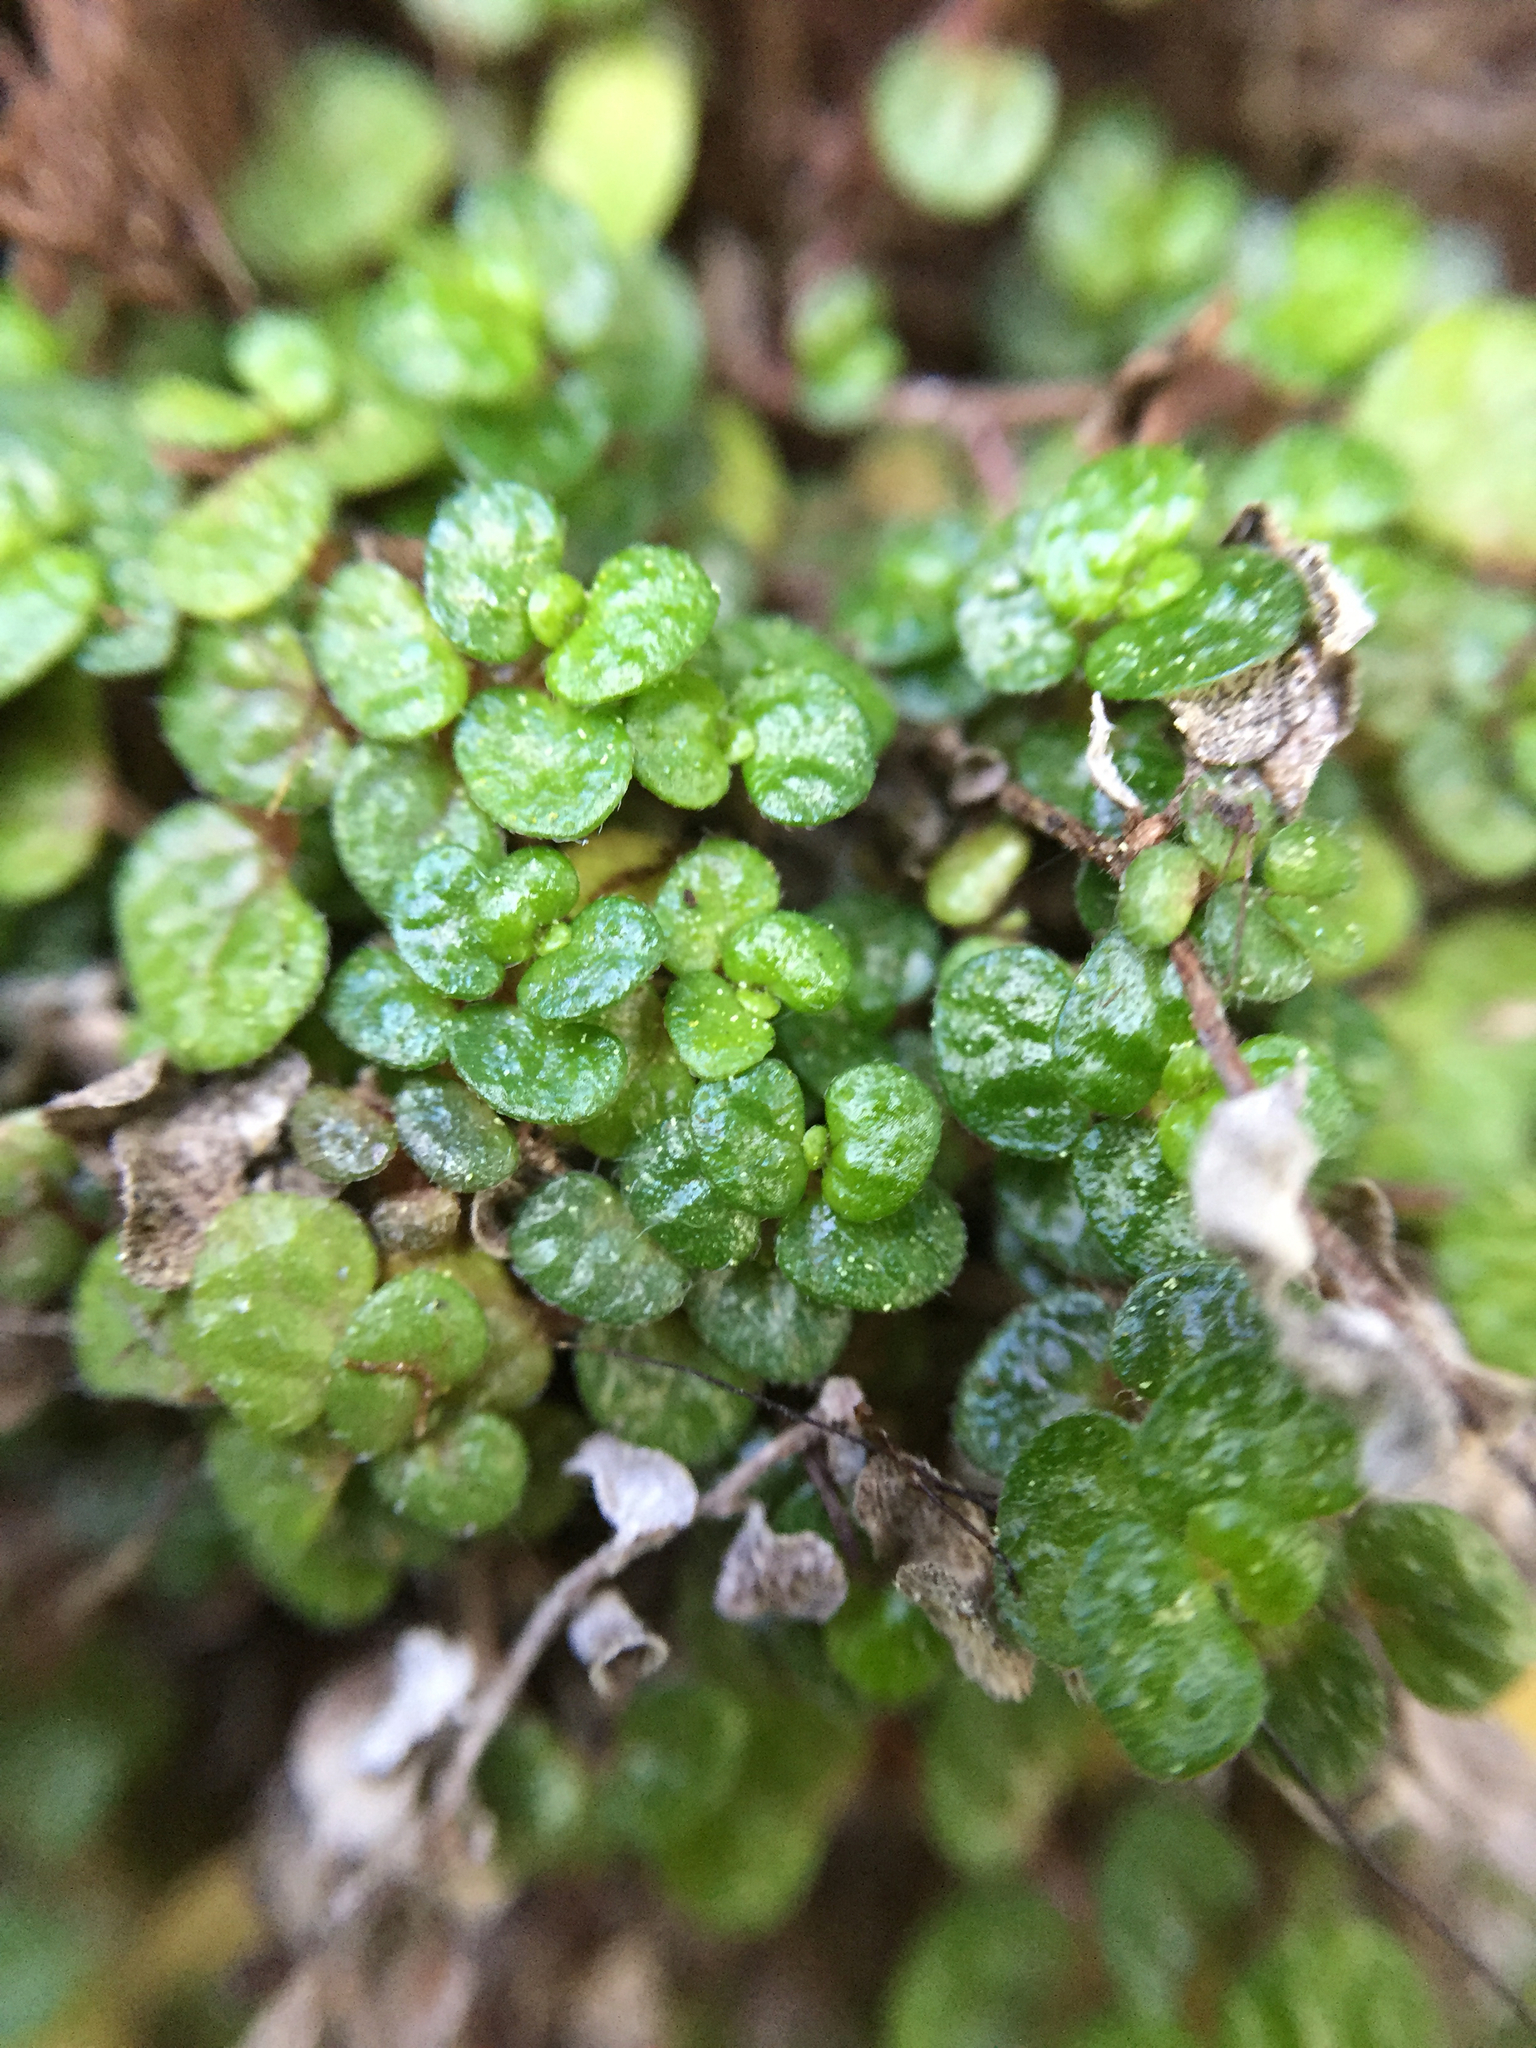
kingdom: Plantae
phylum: Tracheophyta
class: Magnoliopsida
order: Rosales
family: Urticaceae
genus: Soleirolia
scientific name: Soleirolia soleirolii
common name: Mind-your-own-business
